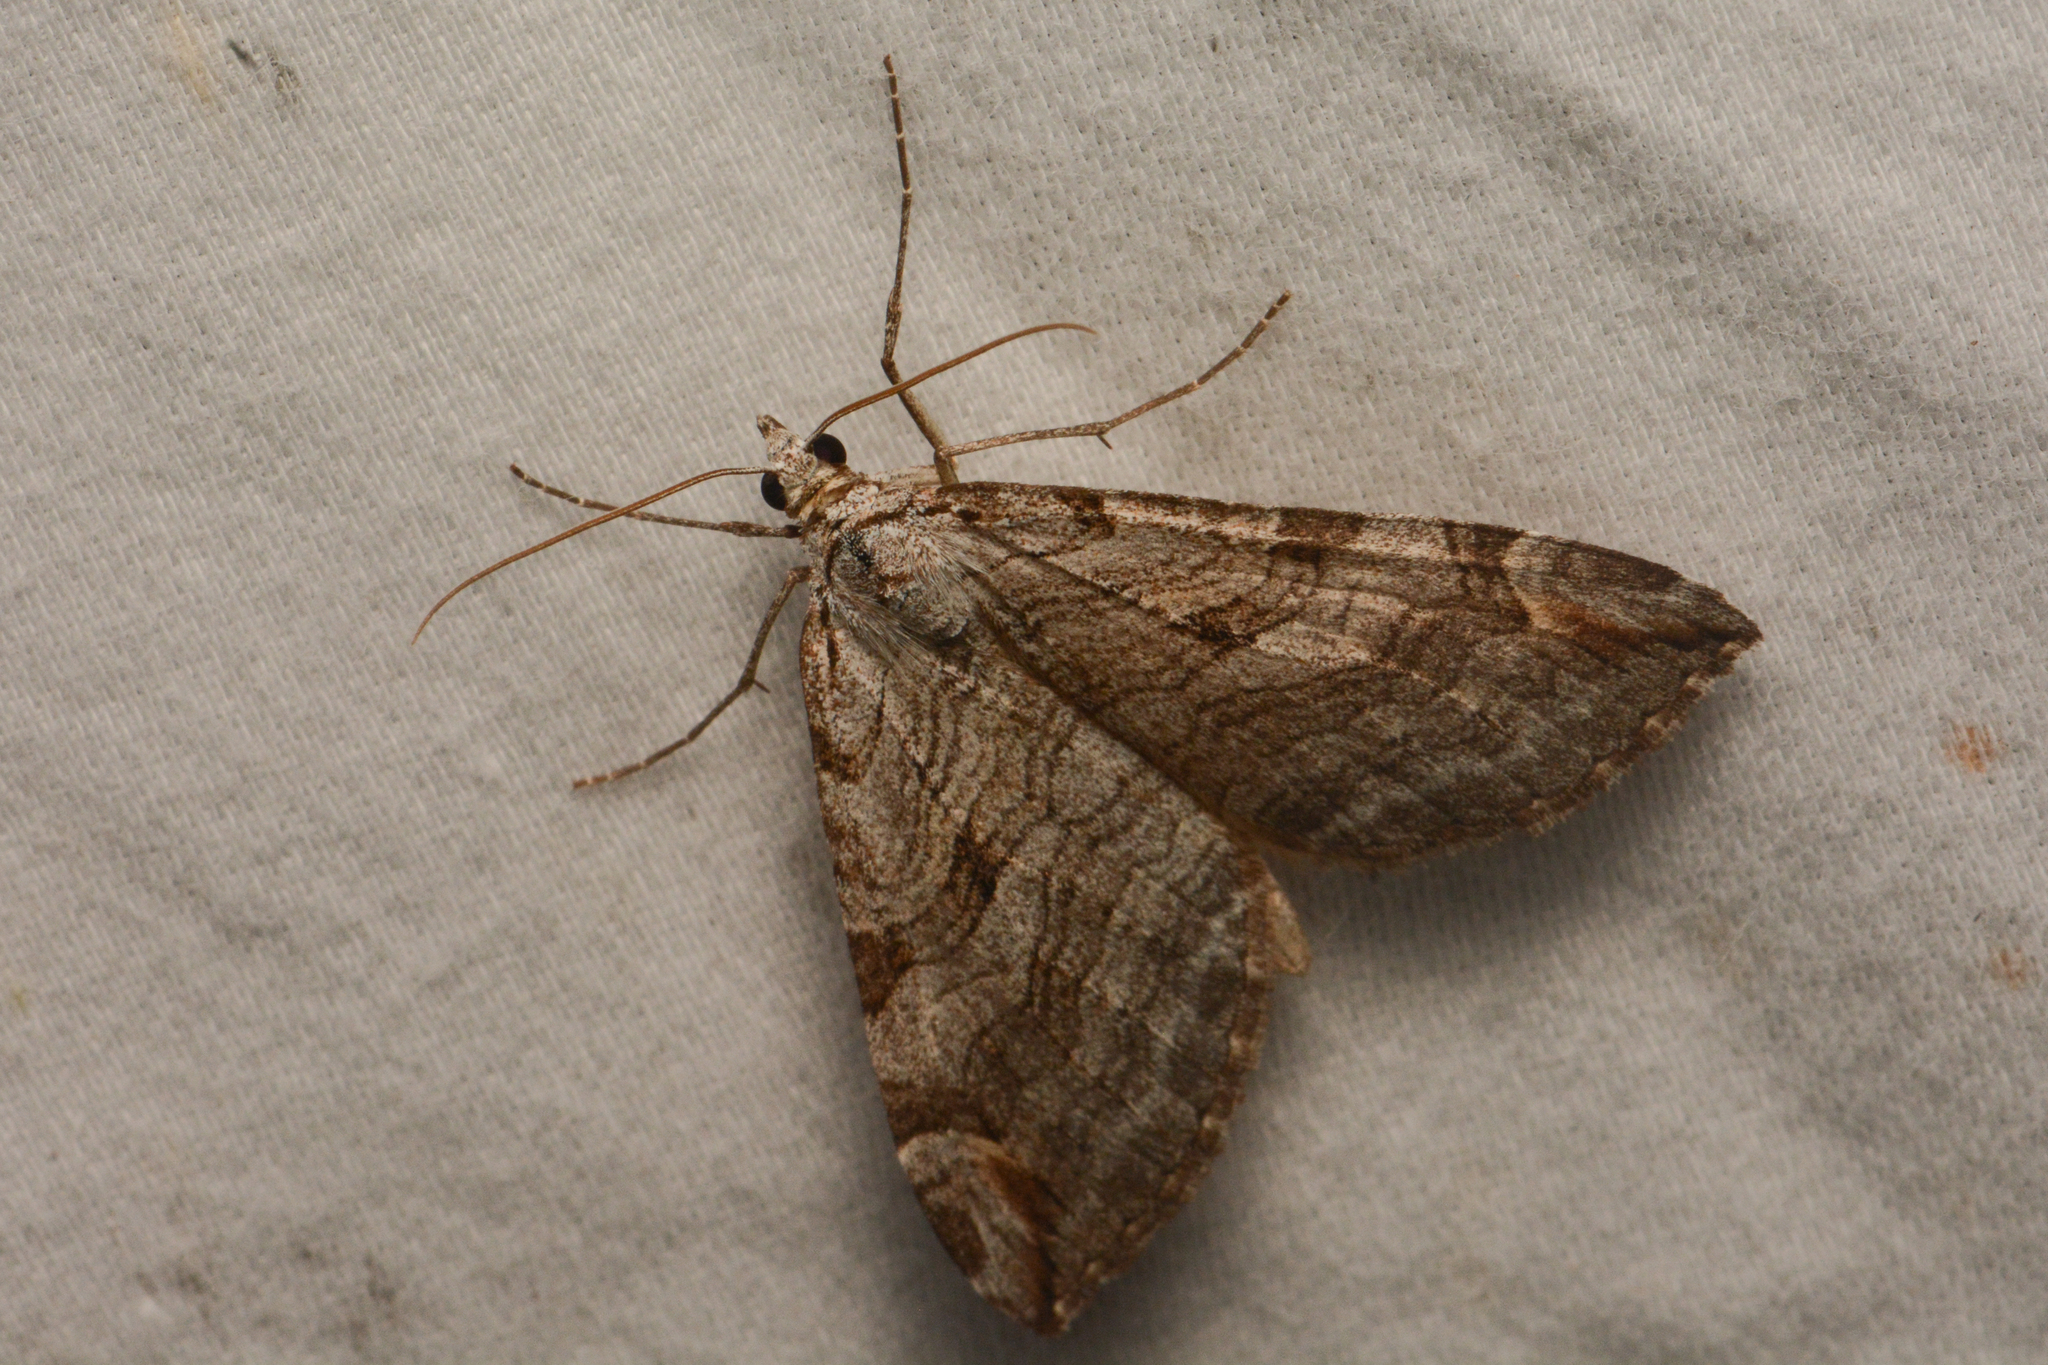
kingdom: Animalia
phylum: Arthropoda
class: Insecta
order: Lepidoptera
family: Geometridae
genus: Aplocera
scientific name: Aplocera plagiata
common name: Treble-bar
